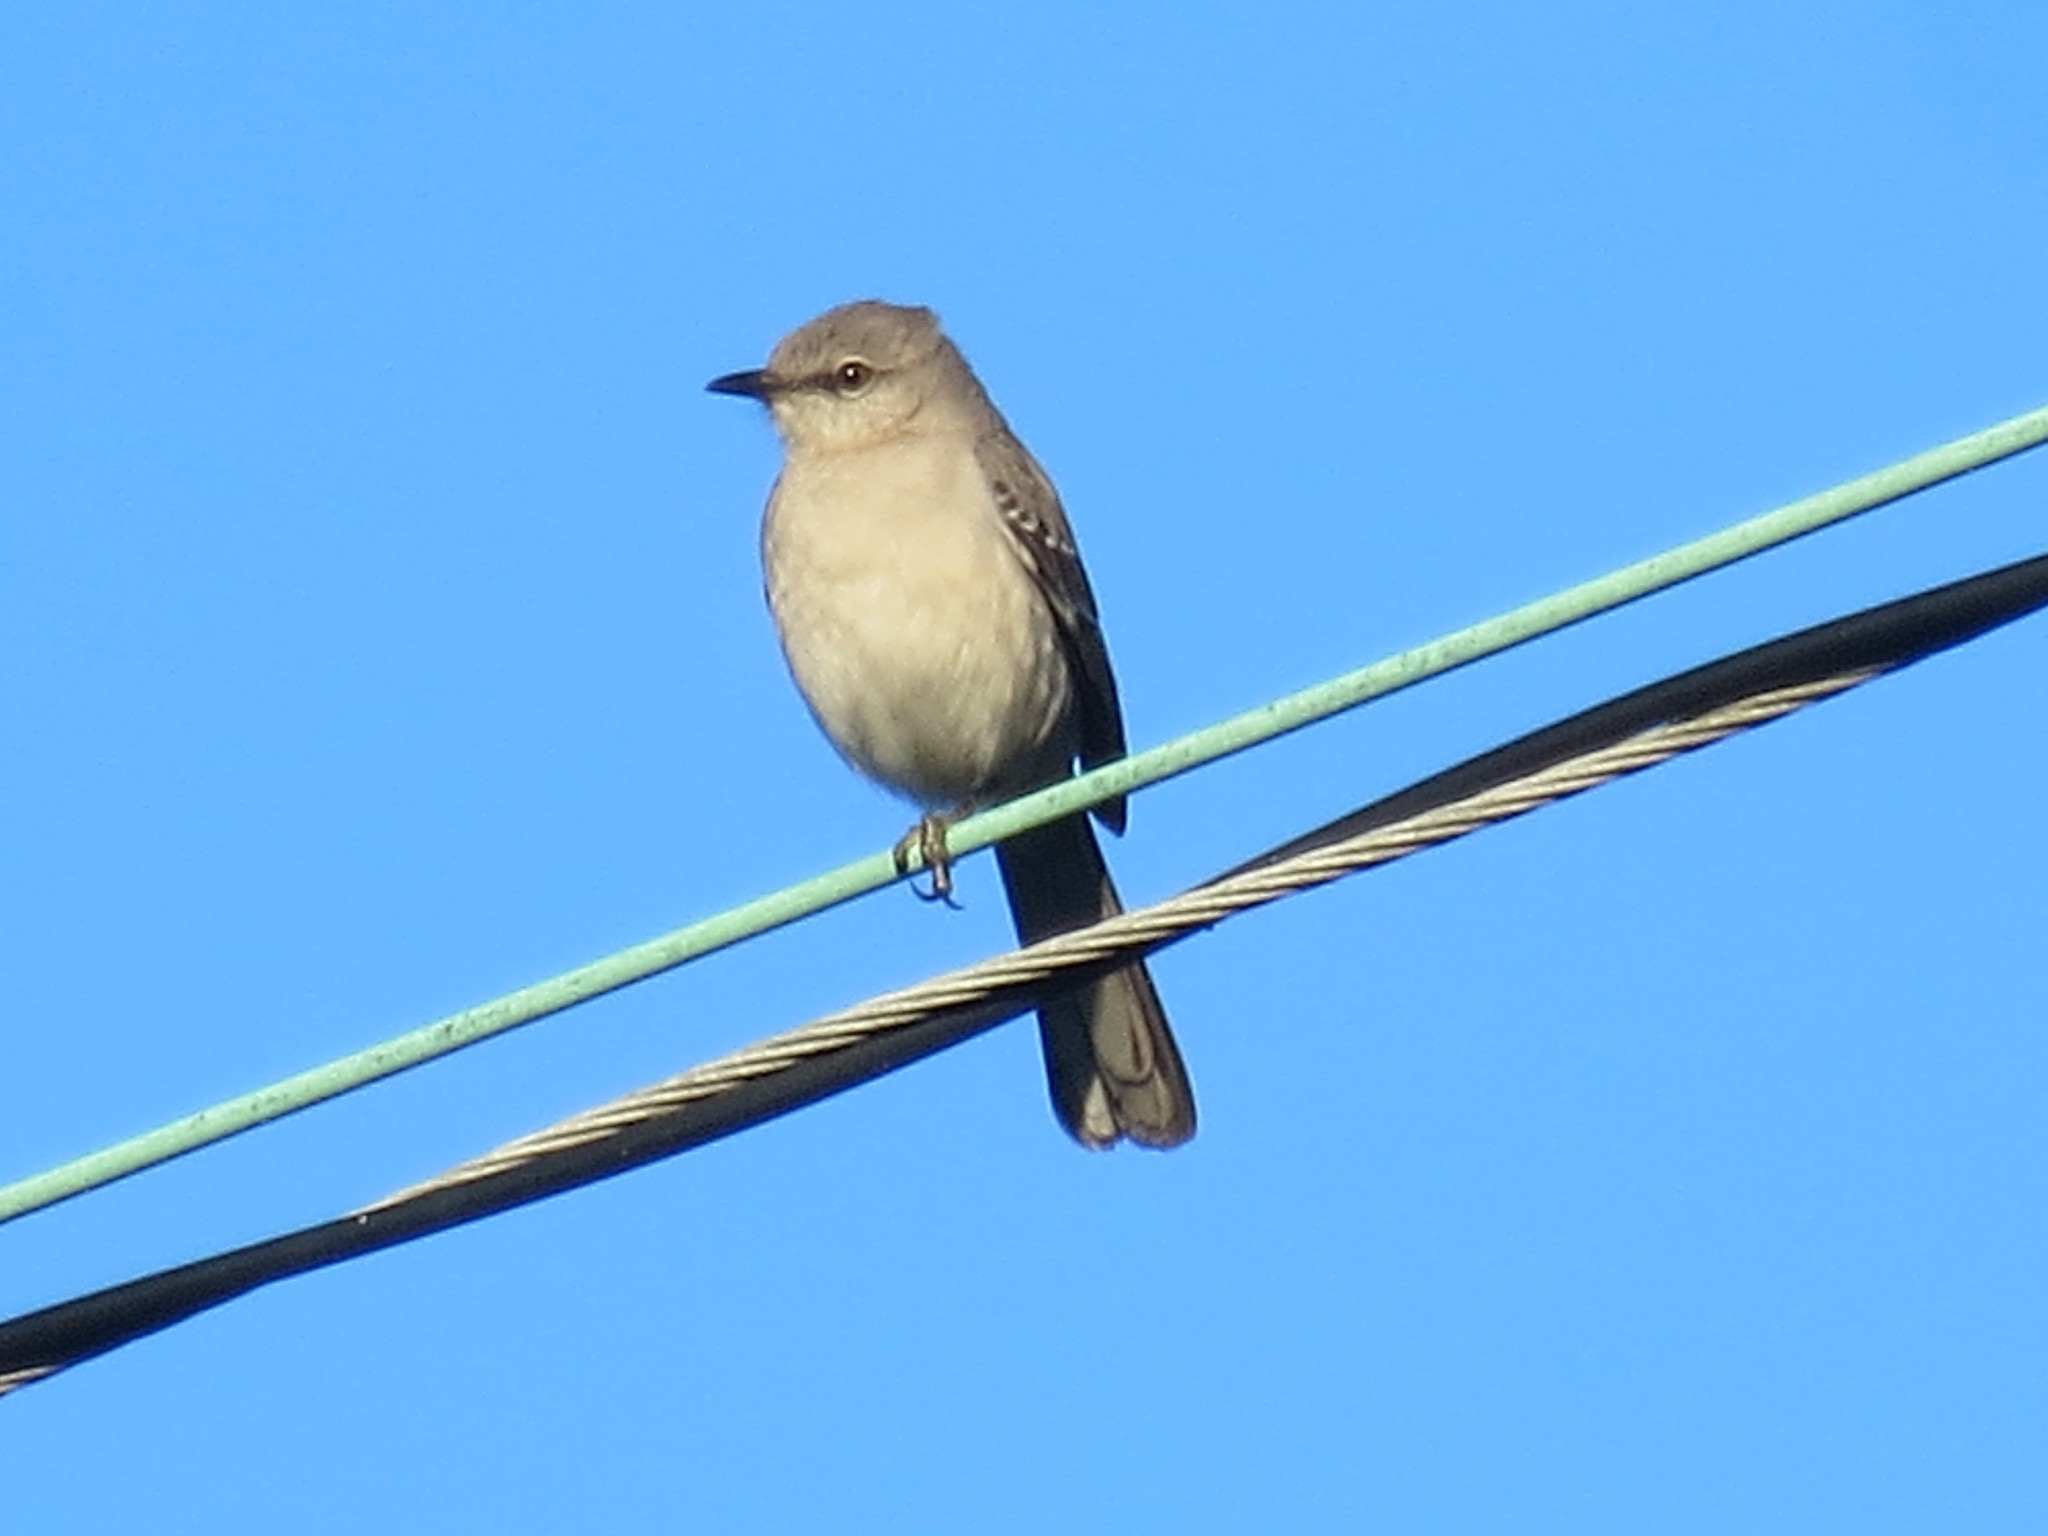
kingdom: Animalia
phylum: Chordata
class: Aves
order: Passeriformes
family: Mimidae
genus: Mimus
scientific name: Mimus polyglottos
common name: Northern mockingbird
